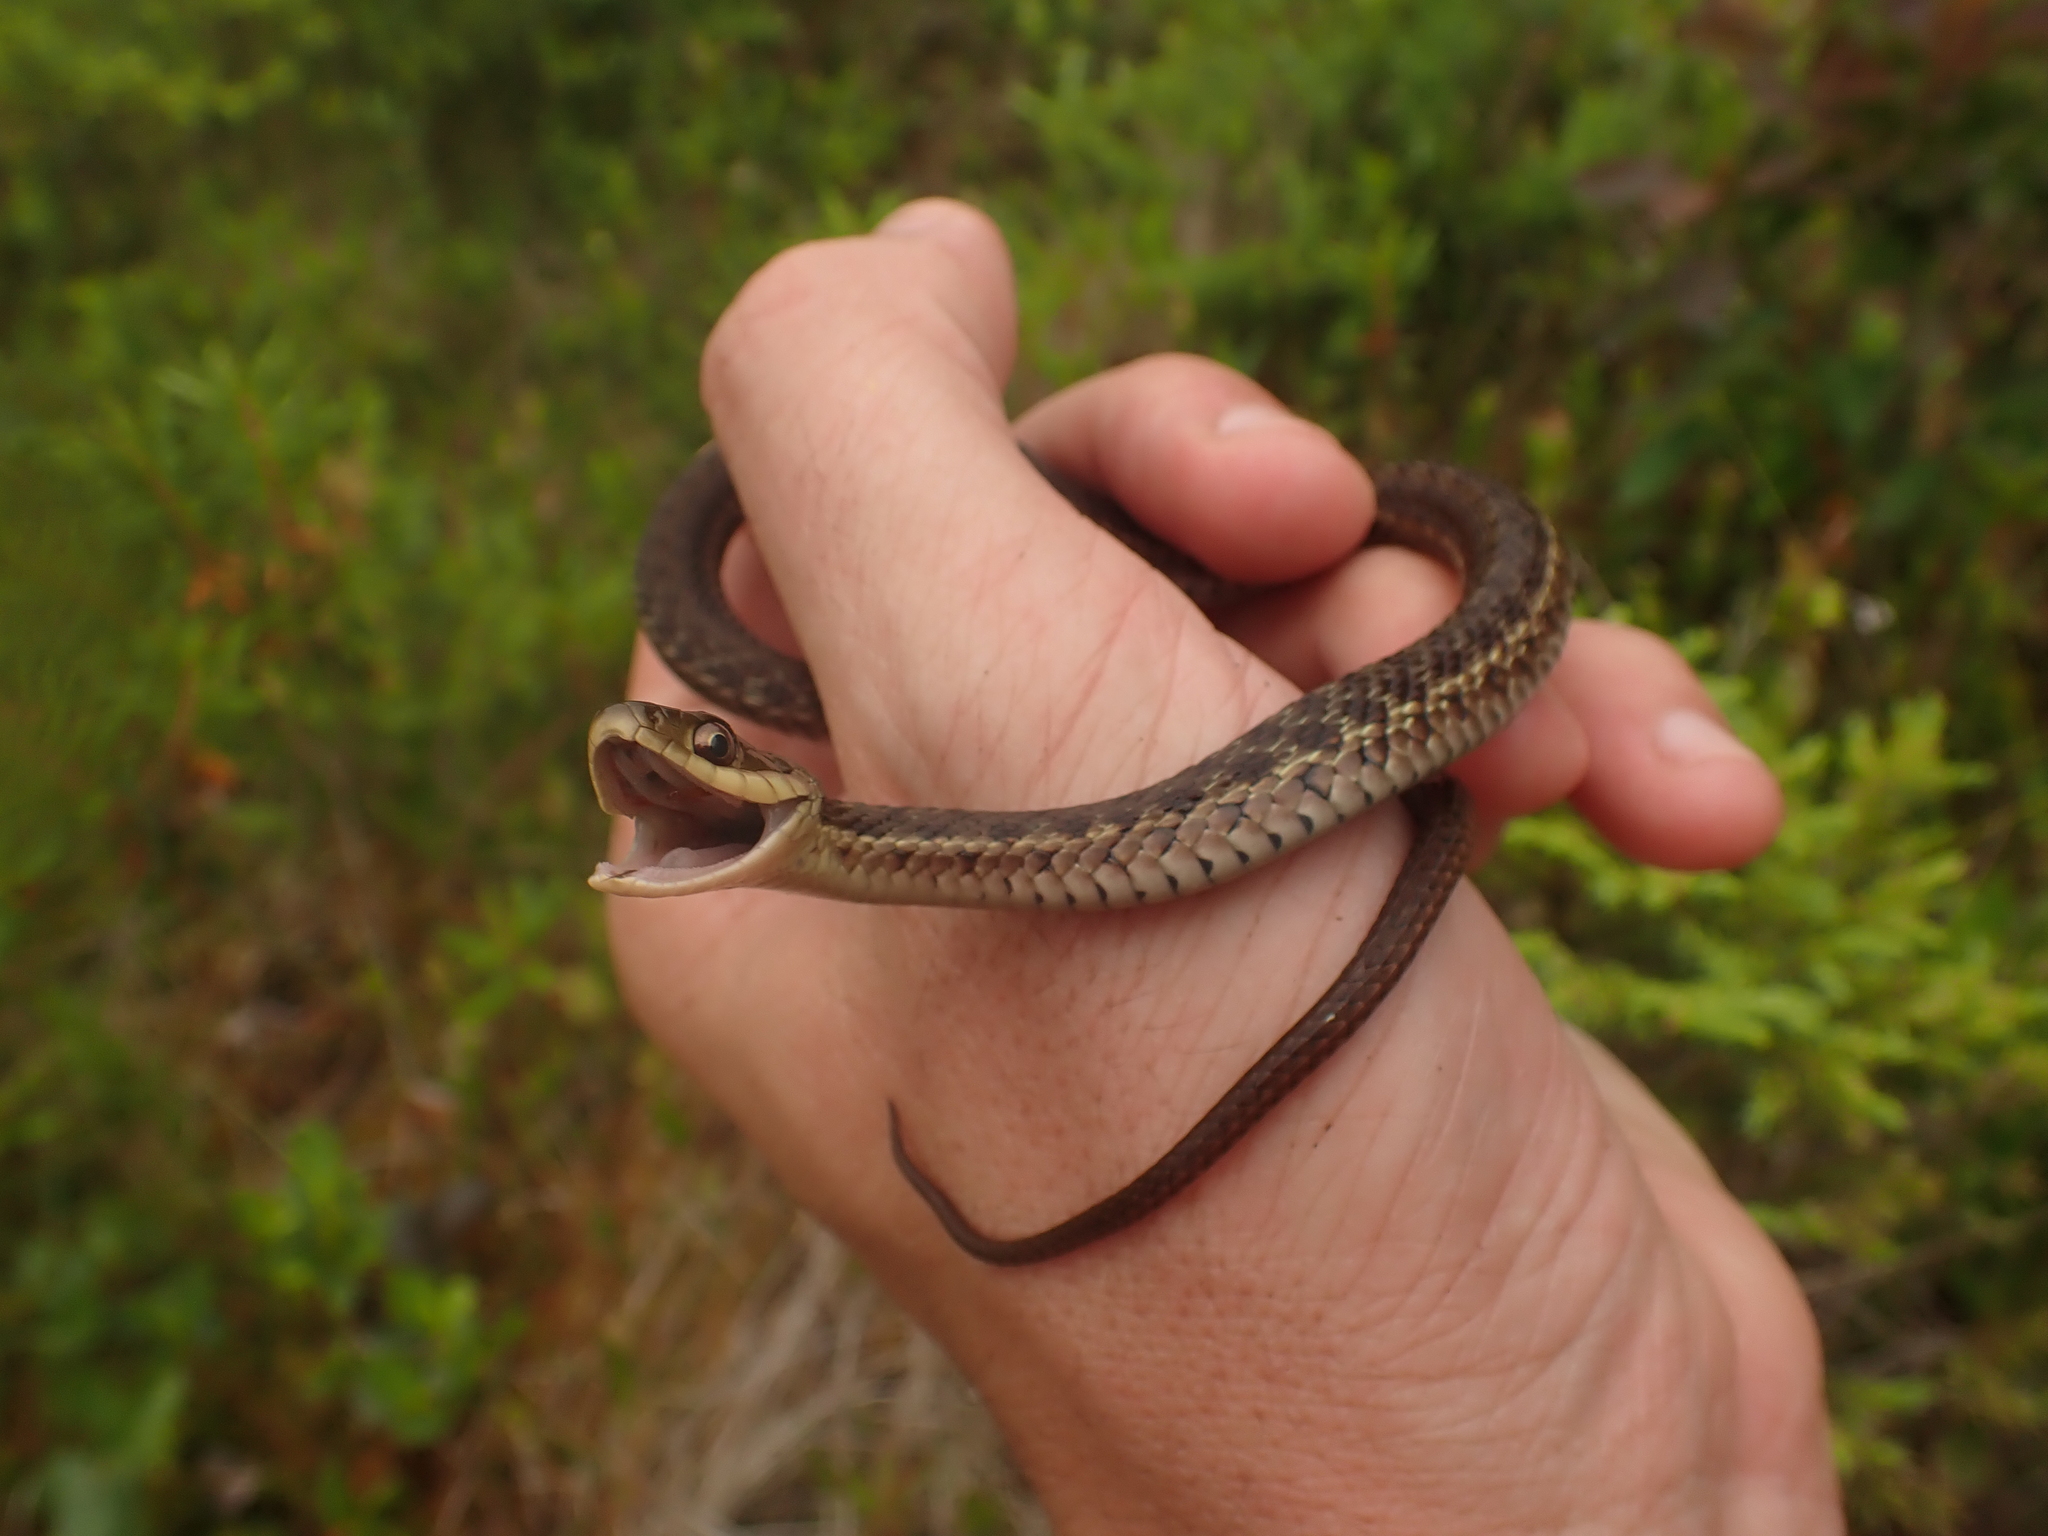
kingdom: Animalia
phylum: Chordata
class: Squamata
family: Colubridae
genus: Thamnophis
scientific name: Thamnophis sirtalis
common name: Common garter snake
